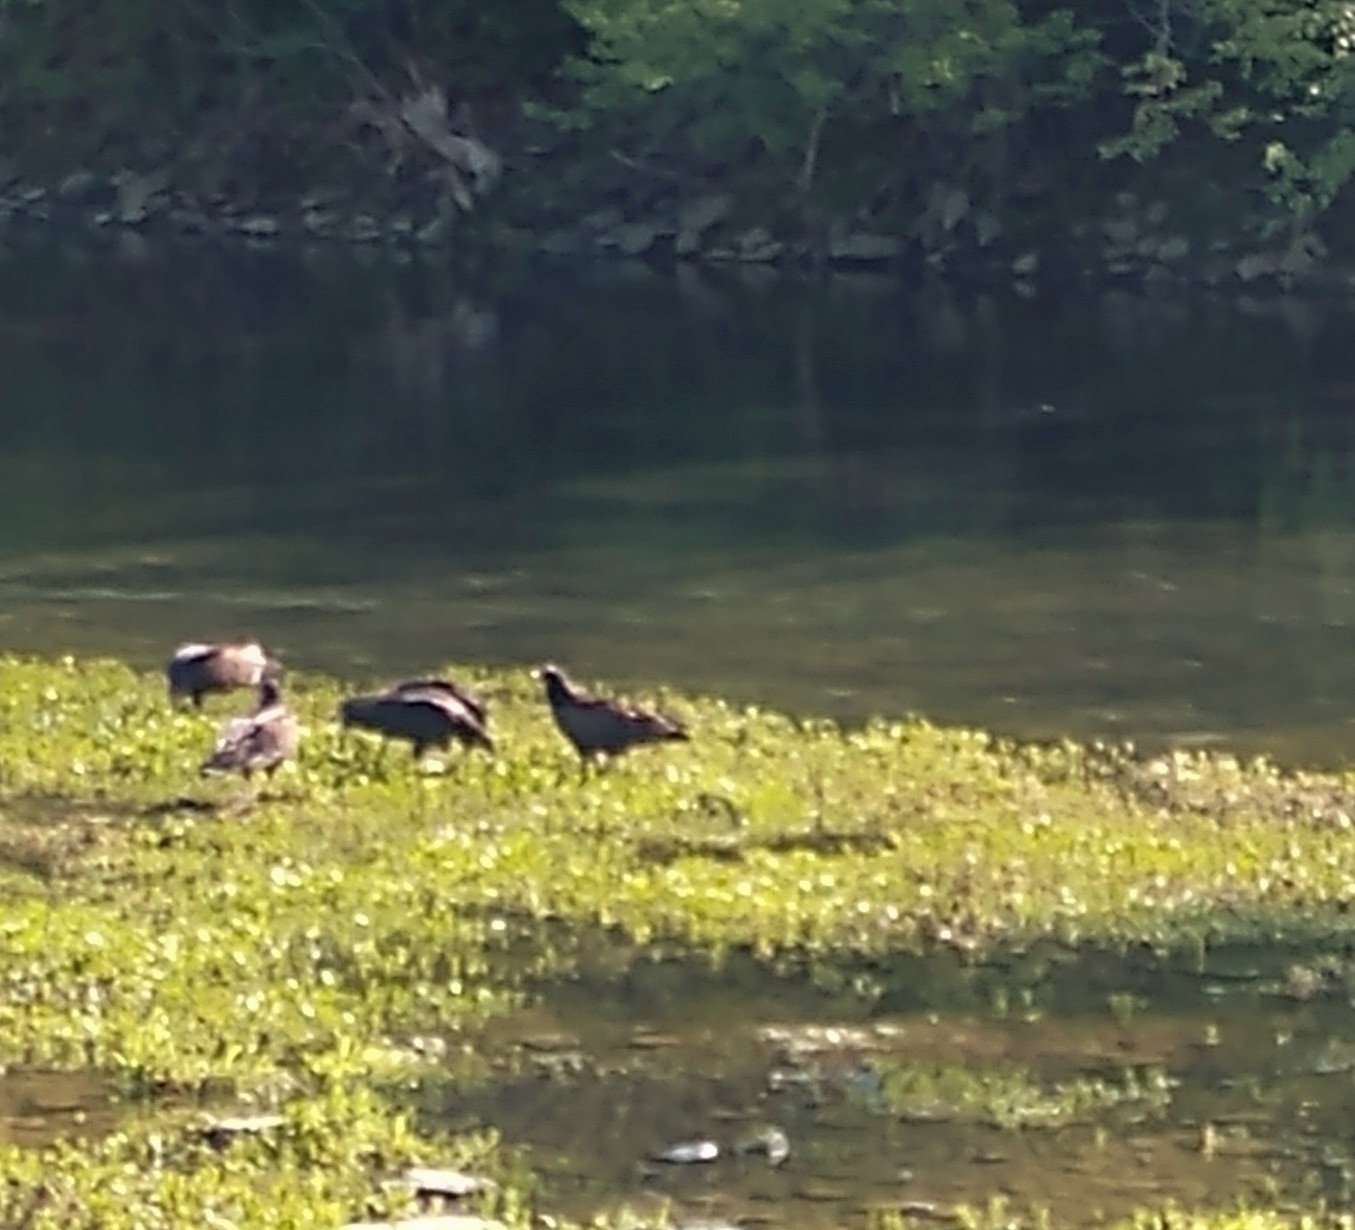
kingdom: Animalia
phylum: Chordata
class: Aves
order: Accipitriformes
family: Cathartidae
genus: Cathartes
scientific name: Cathartes aura
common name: Turkey vulture
